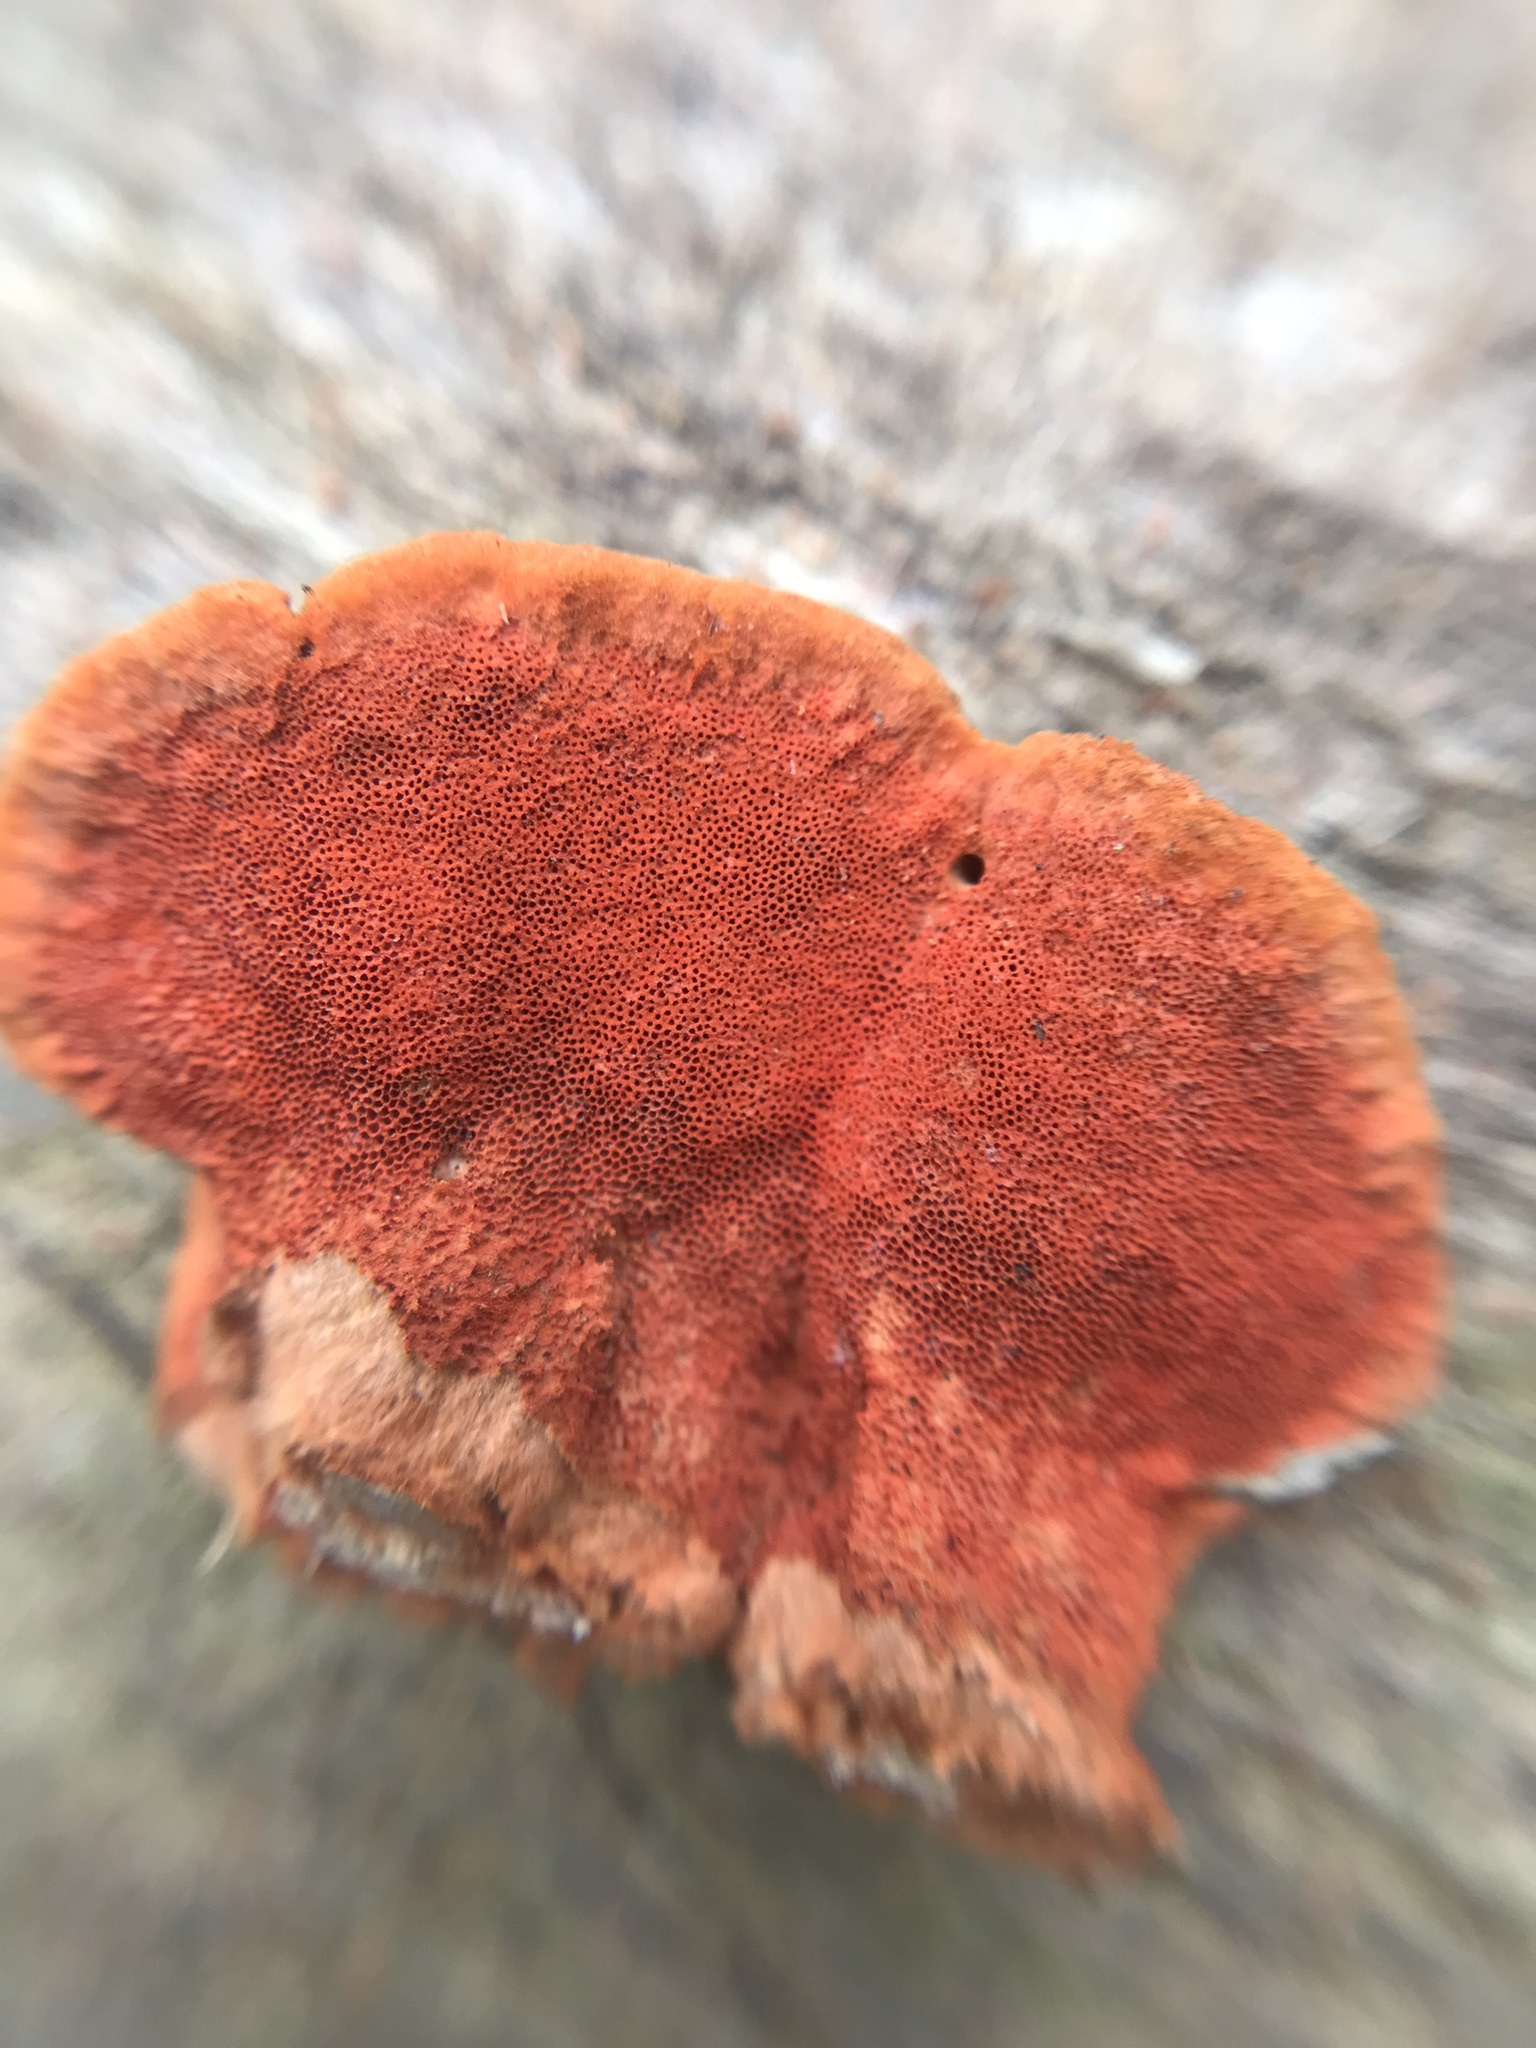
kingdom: Fungi
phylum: Basidiomycota
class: Agaricomycetes
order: Polyporales
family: Polyporaceae
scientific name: Polyporaceae
